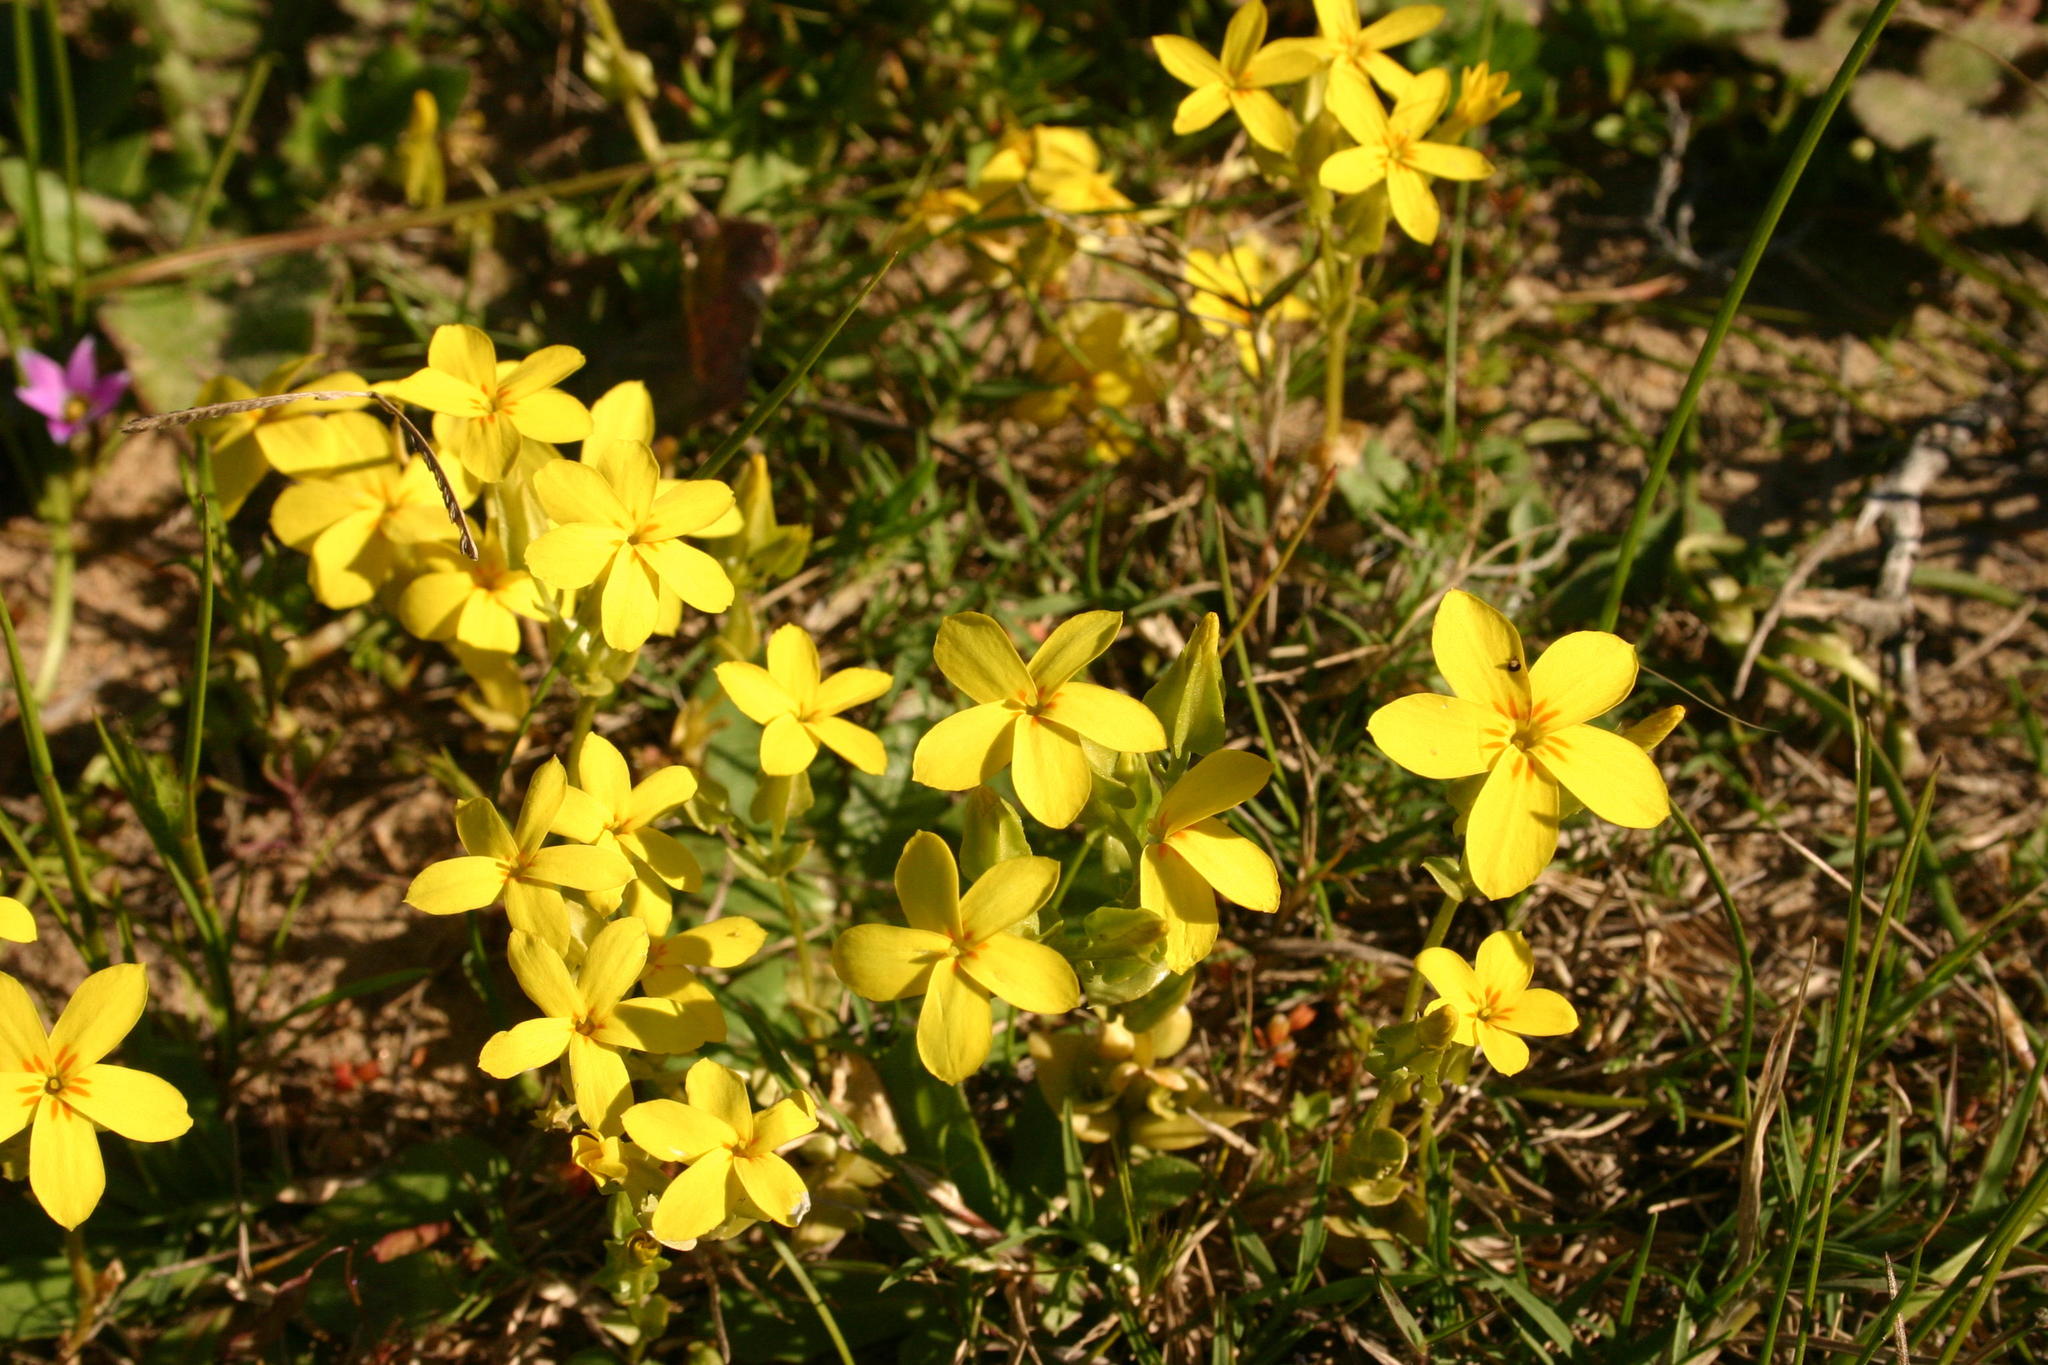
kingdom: Plantae
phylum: Tracheophyta
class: Magnoliopsida
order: Gentianales
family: Gentianaceae
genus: Sebaea
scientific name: Sebaea exacoides
